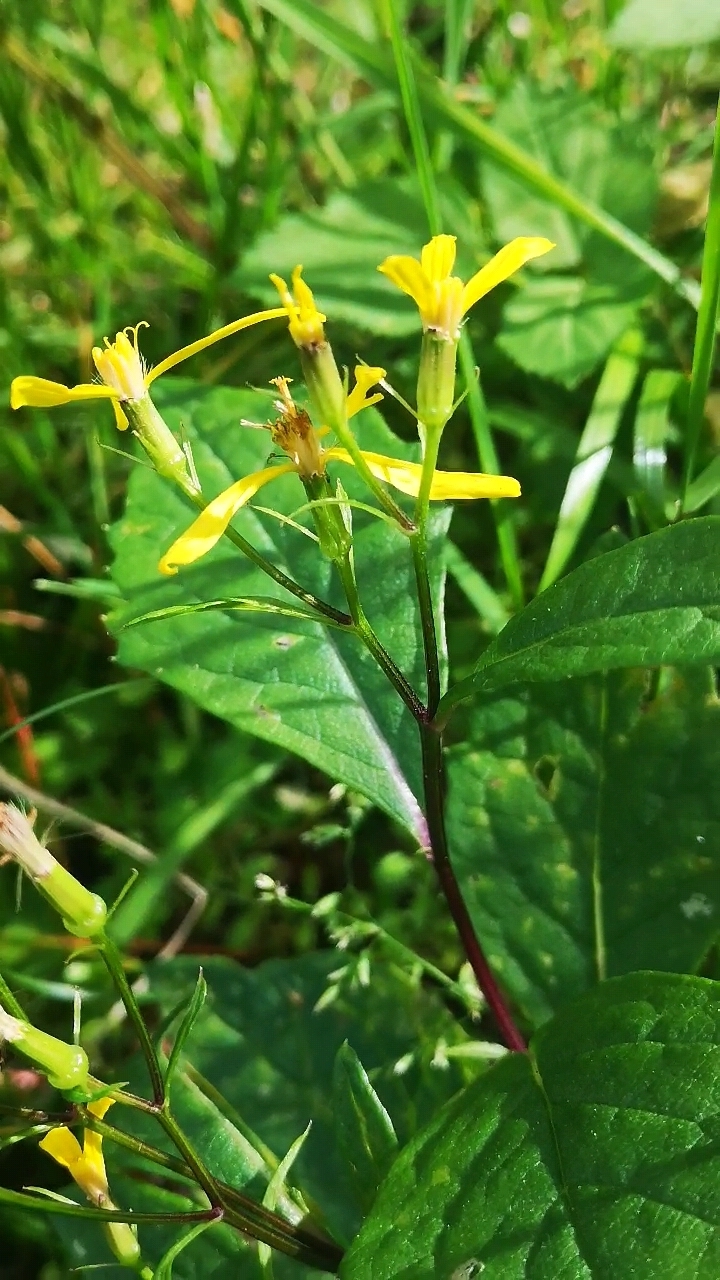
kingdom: Plantae
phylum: Tracheophyta
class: Magnoliopsida
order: Asterales
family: Asteraceae
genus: Senecio
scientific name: Senecio ovatus
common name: Wood ragwort
